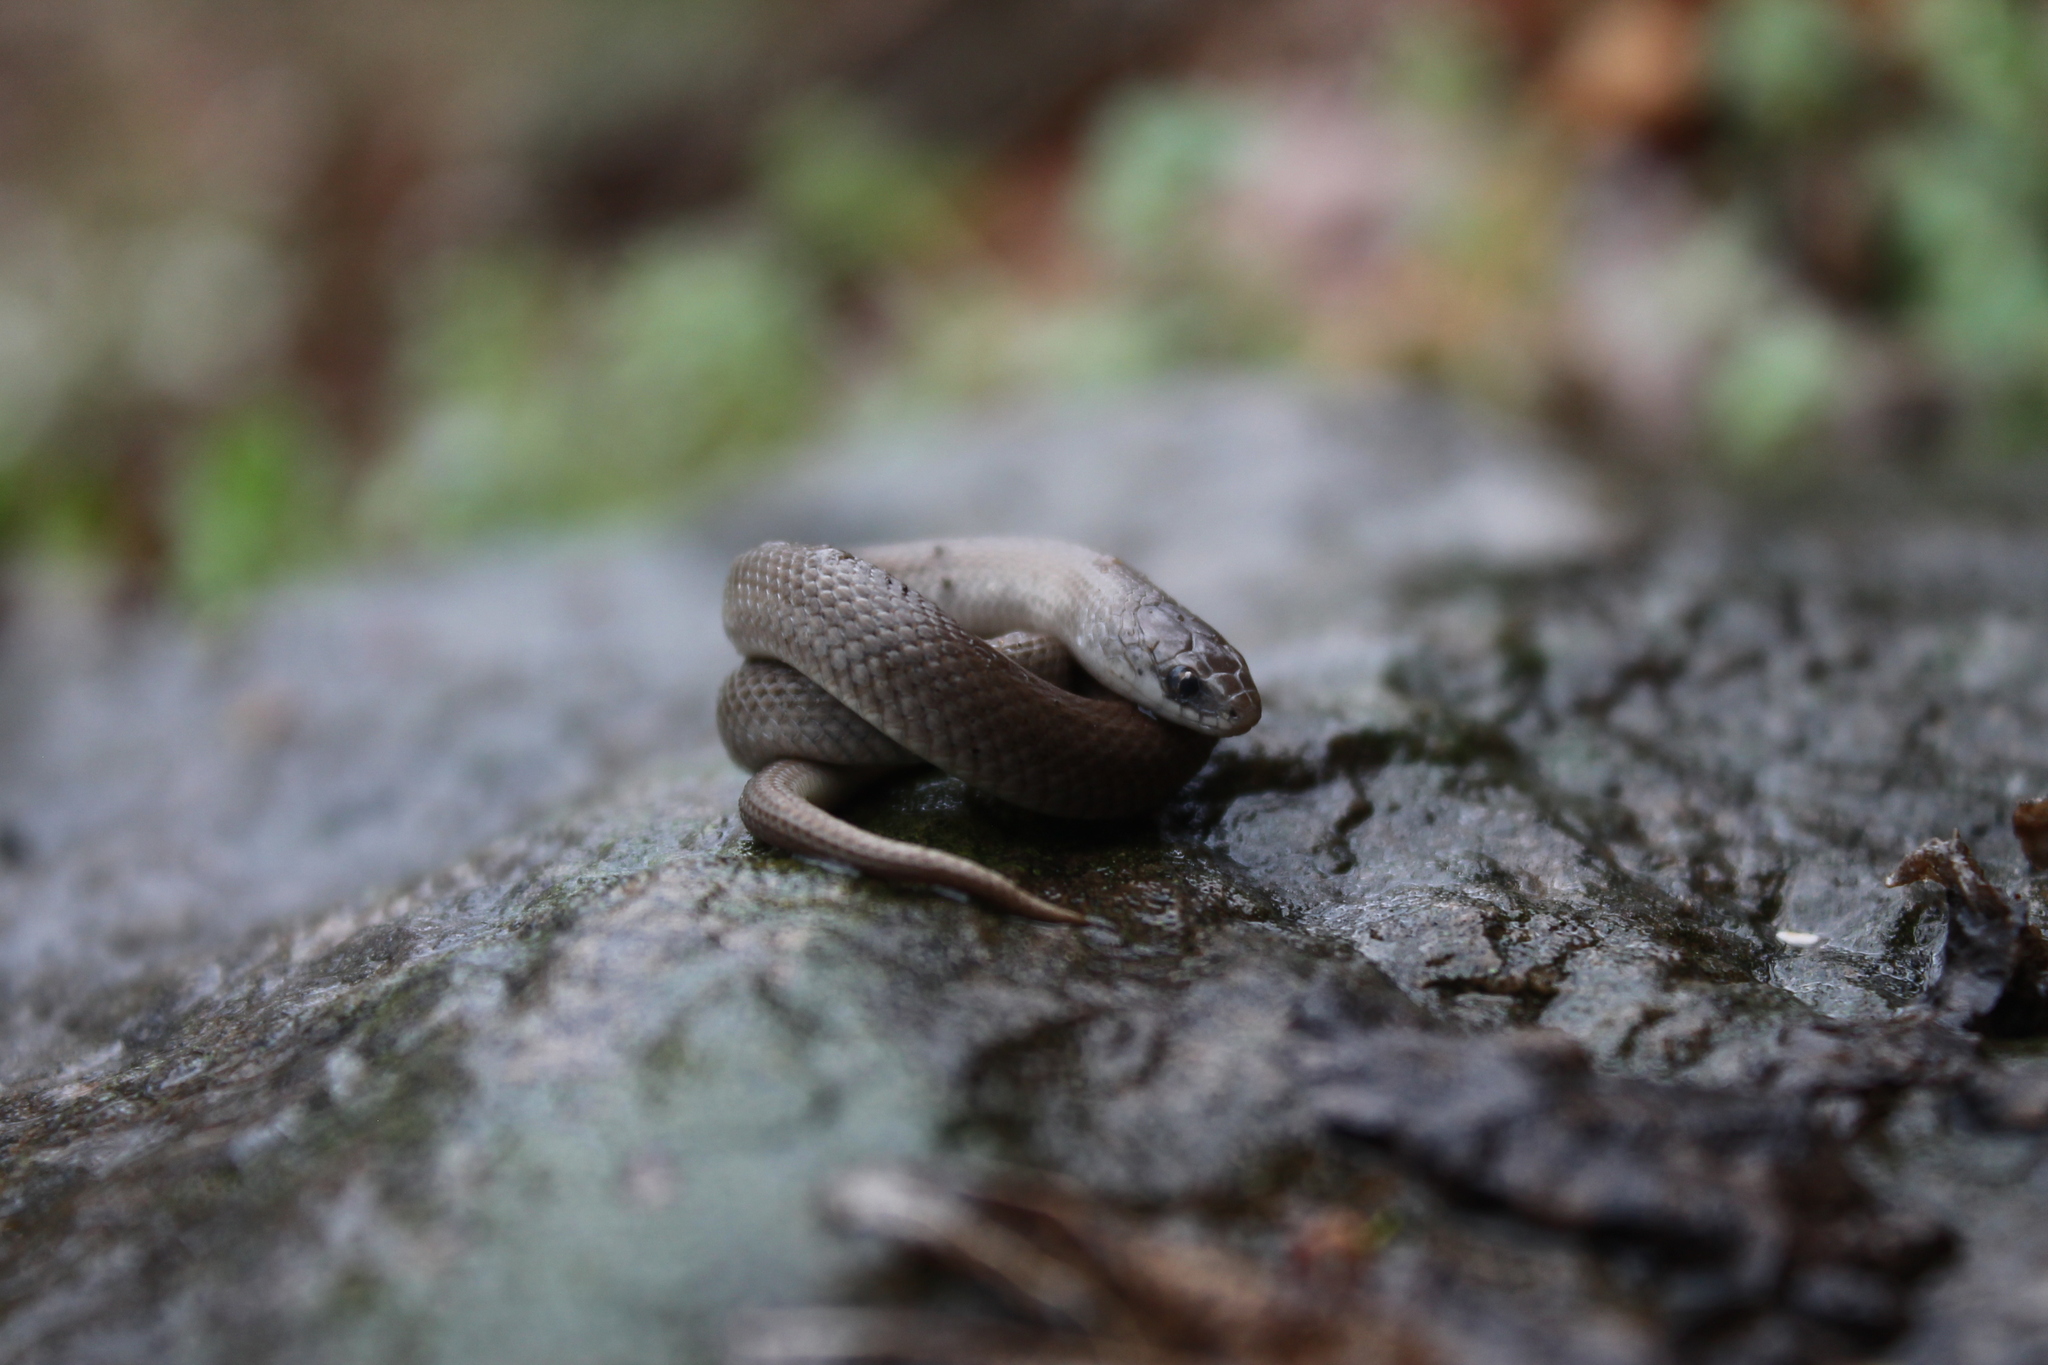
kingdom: Animalia
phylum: Chordata
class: Squamata
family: Colubridae
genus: Virginia
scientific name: Virginia valeriae
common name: Smooth earth snake
